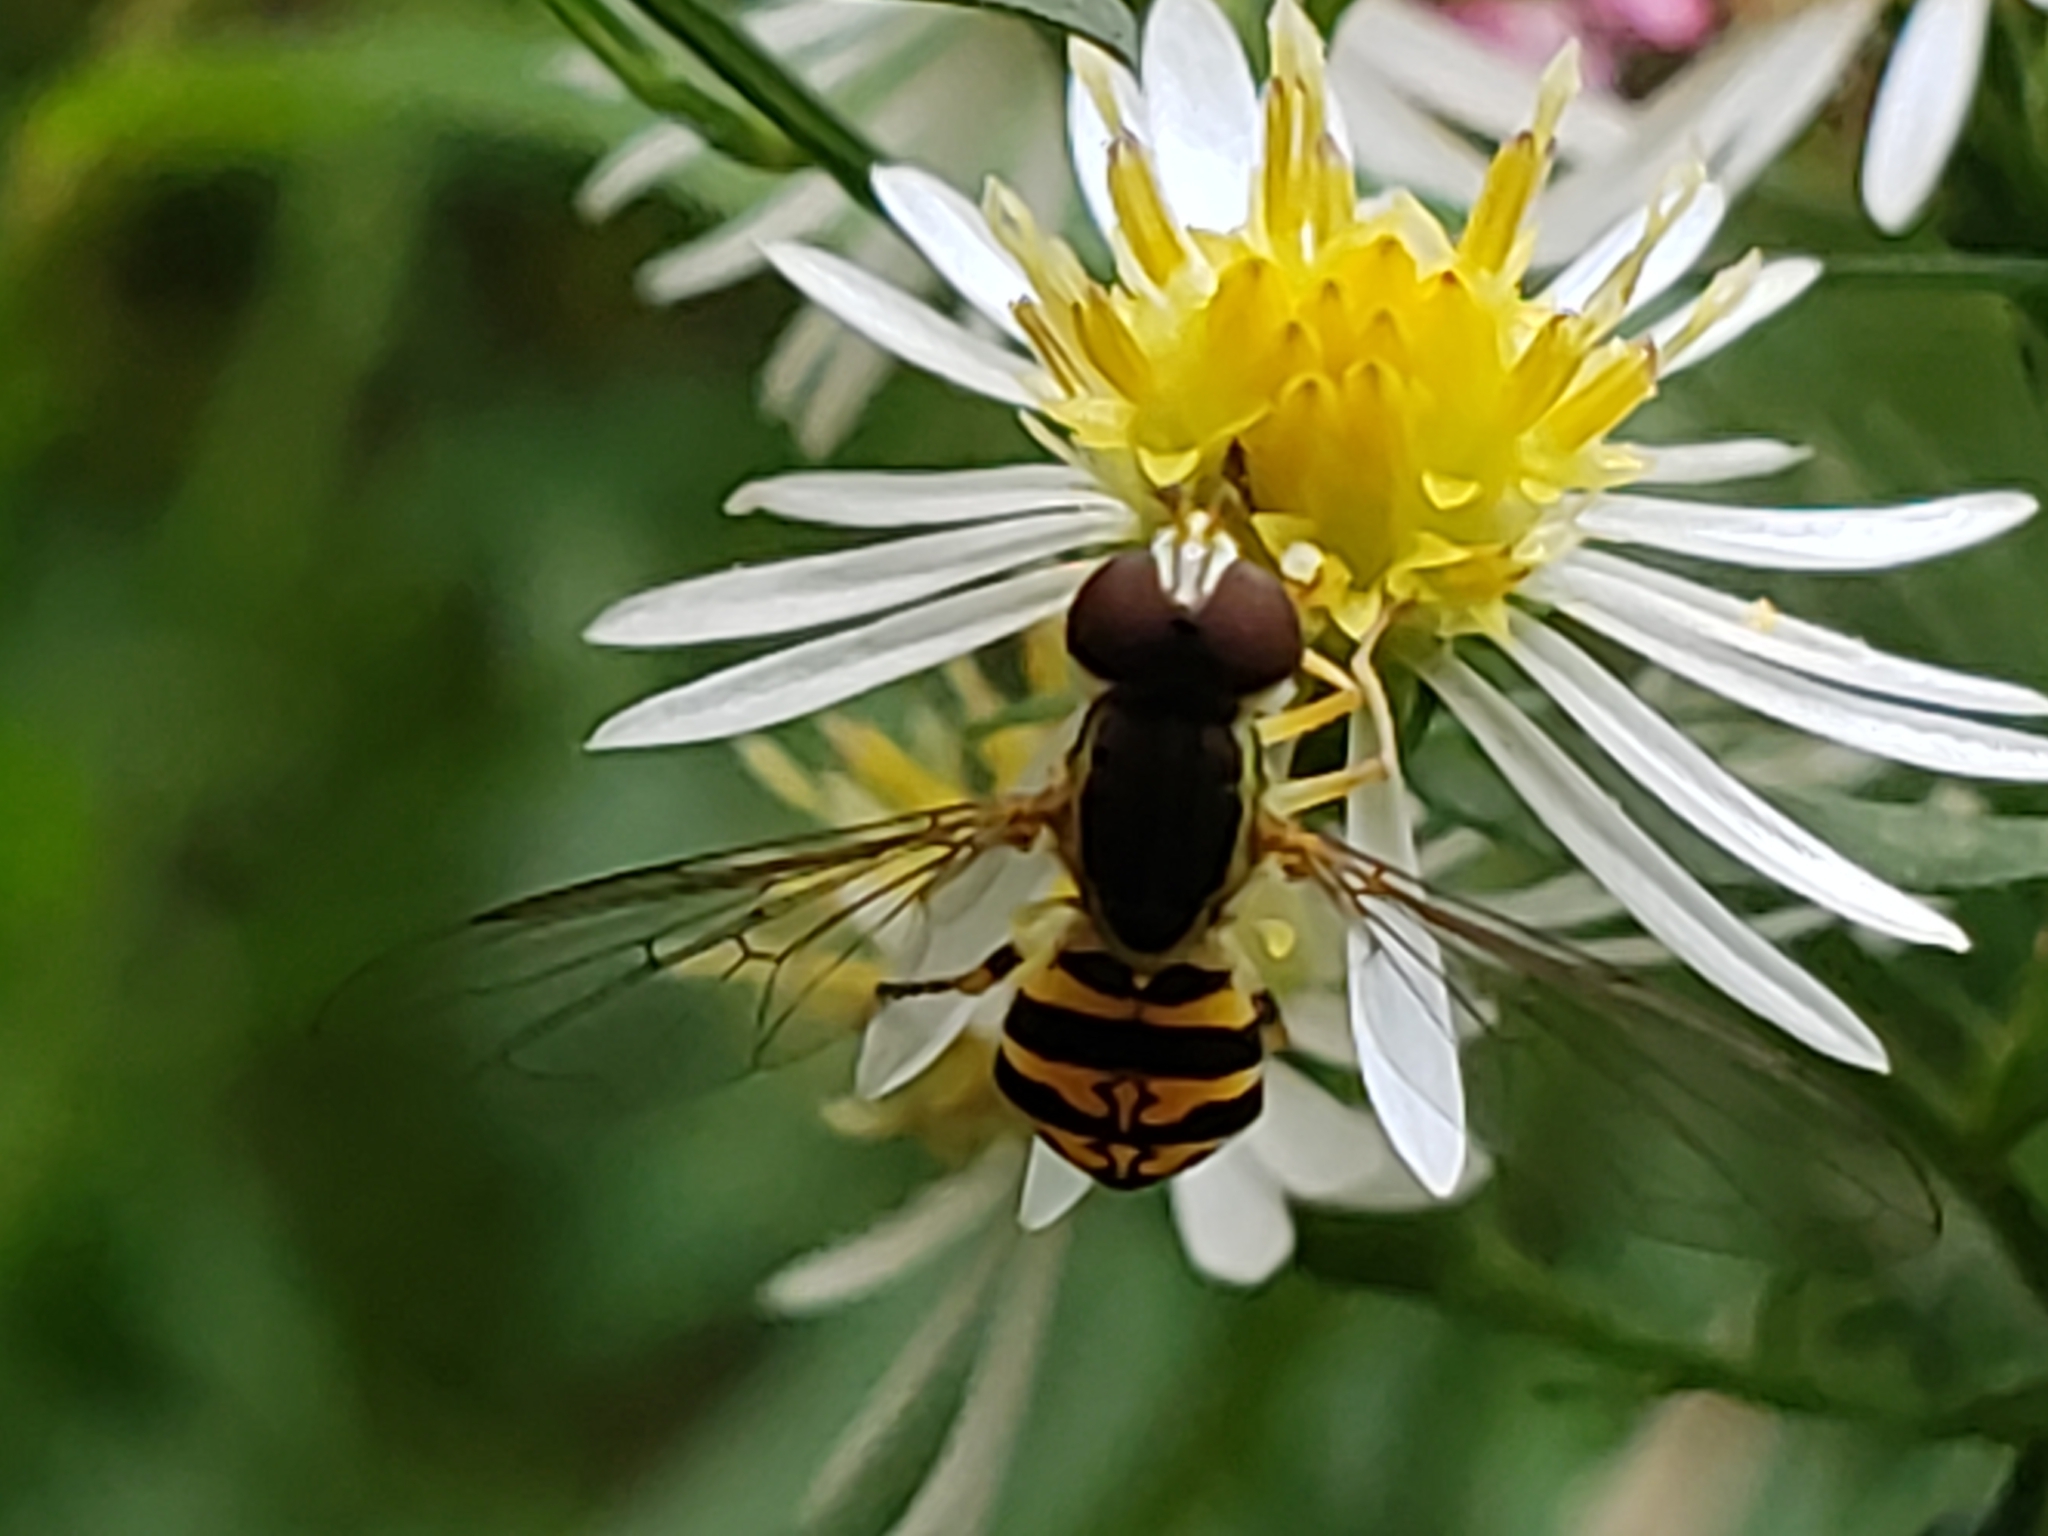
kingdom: Animalia
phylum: Arthropoda
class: Insecta
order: Diptera
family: Syrphidae
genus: Toxomerus
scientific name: Toxomerus geminatus
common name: Eastern calligrapher
